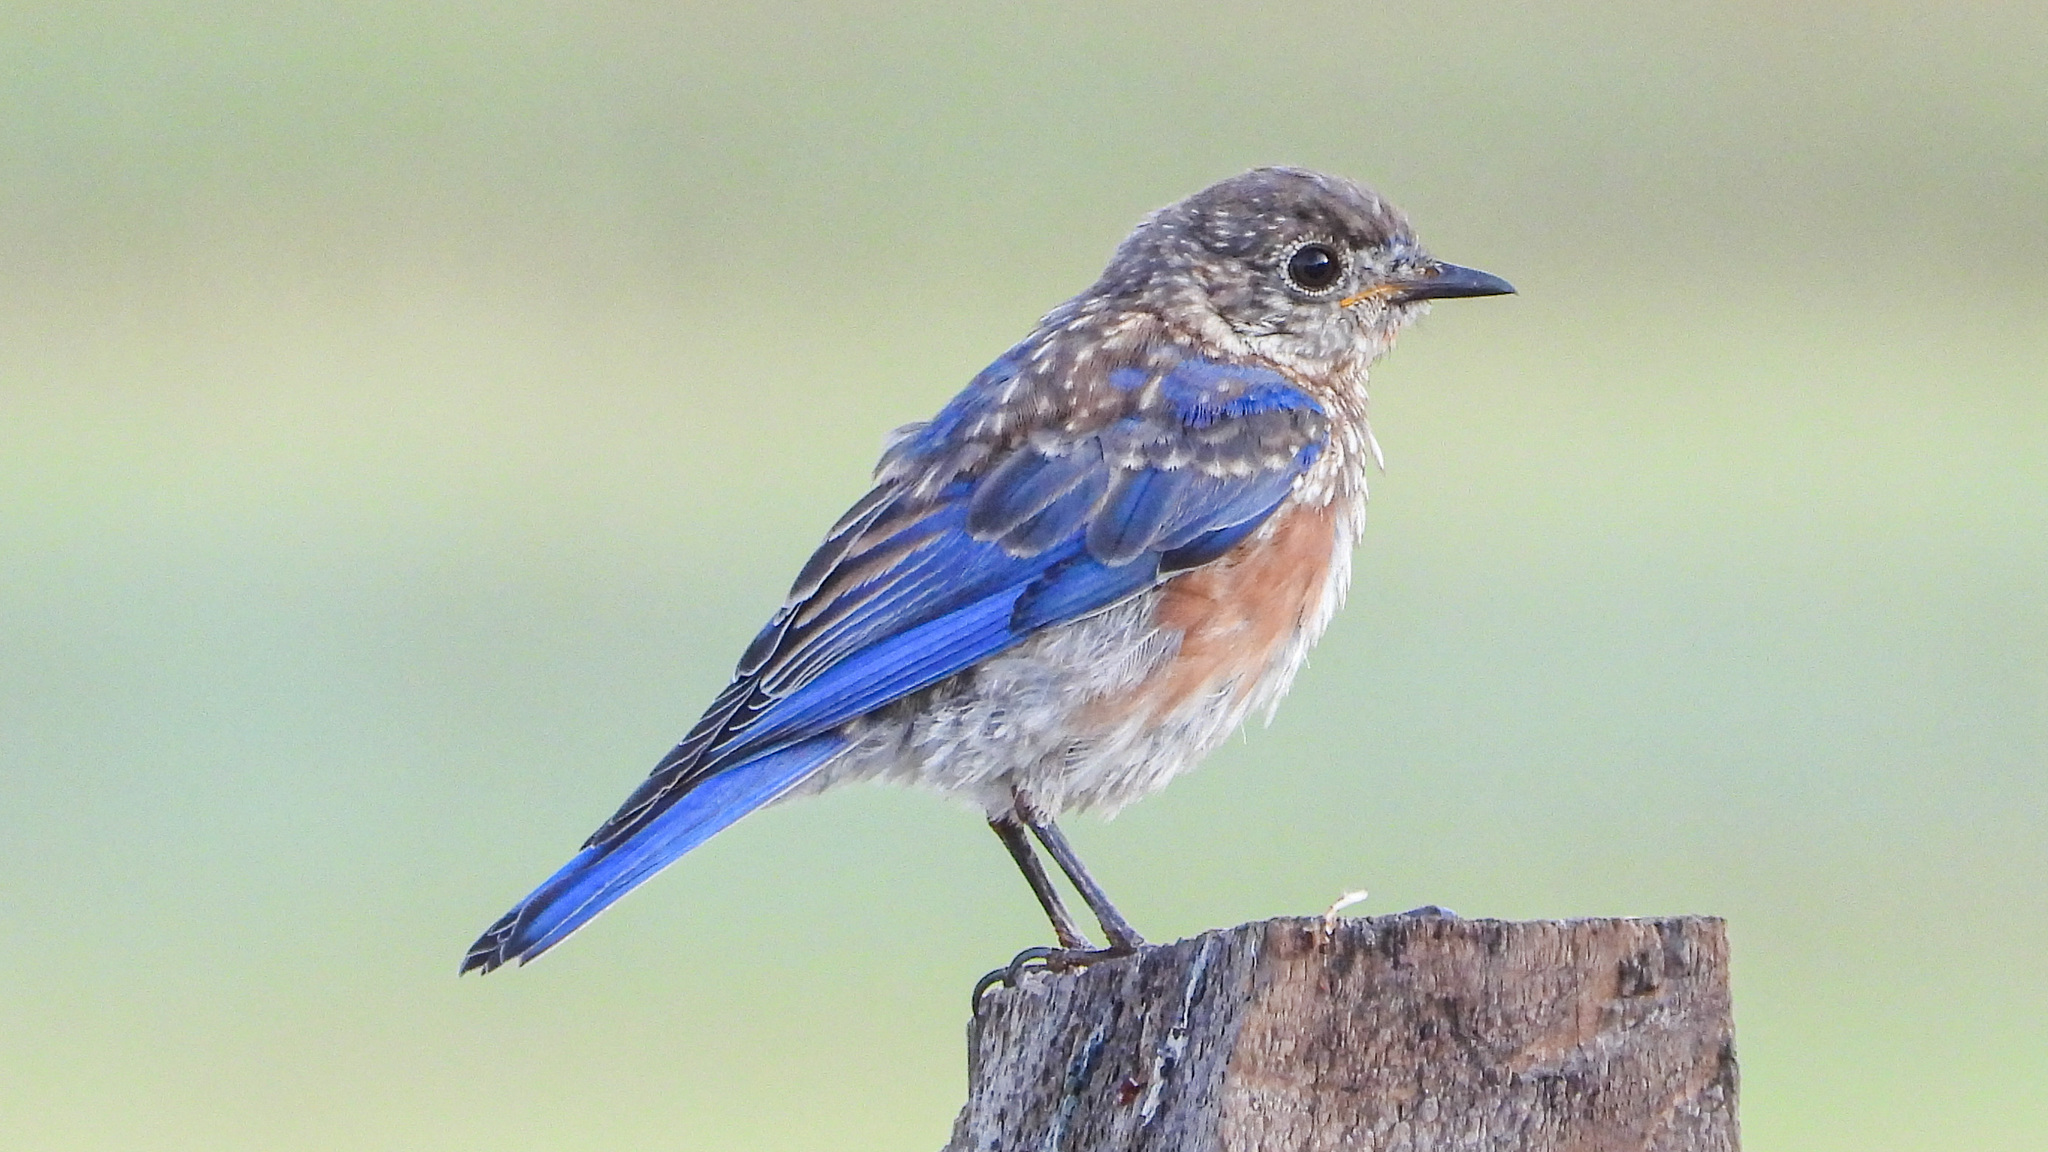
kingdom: Animalia
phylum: Chordata
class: Aves
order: Passeriformes
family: Turdidae
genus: Sialia
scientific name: Sialia sialis
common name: Eastern bluebird
